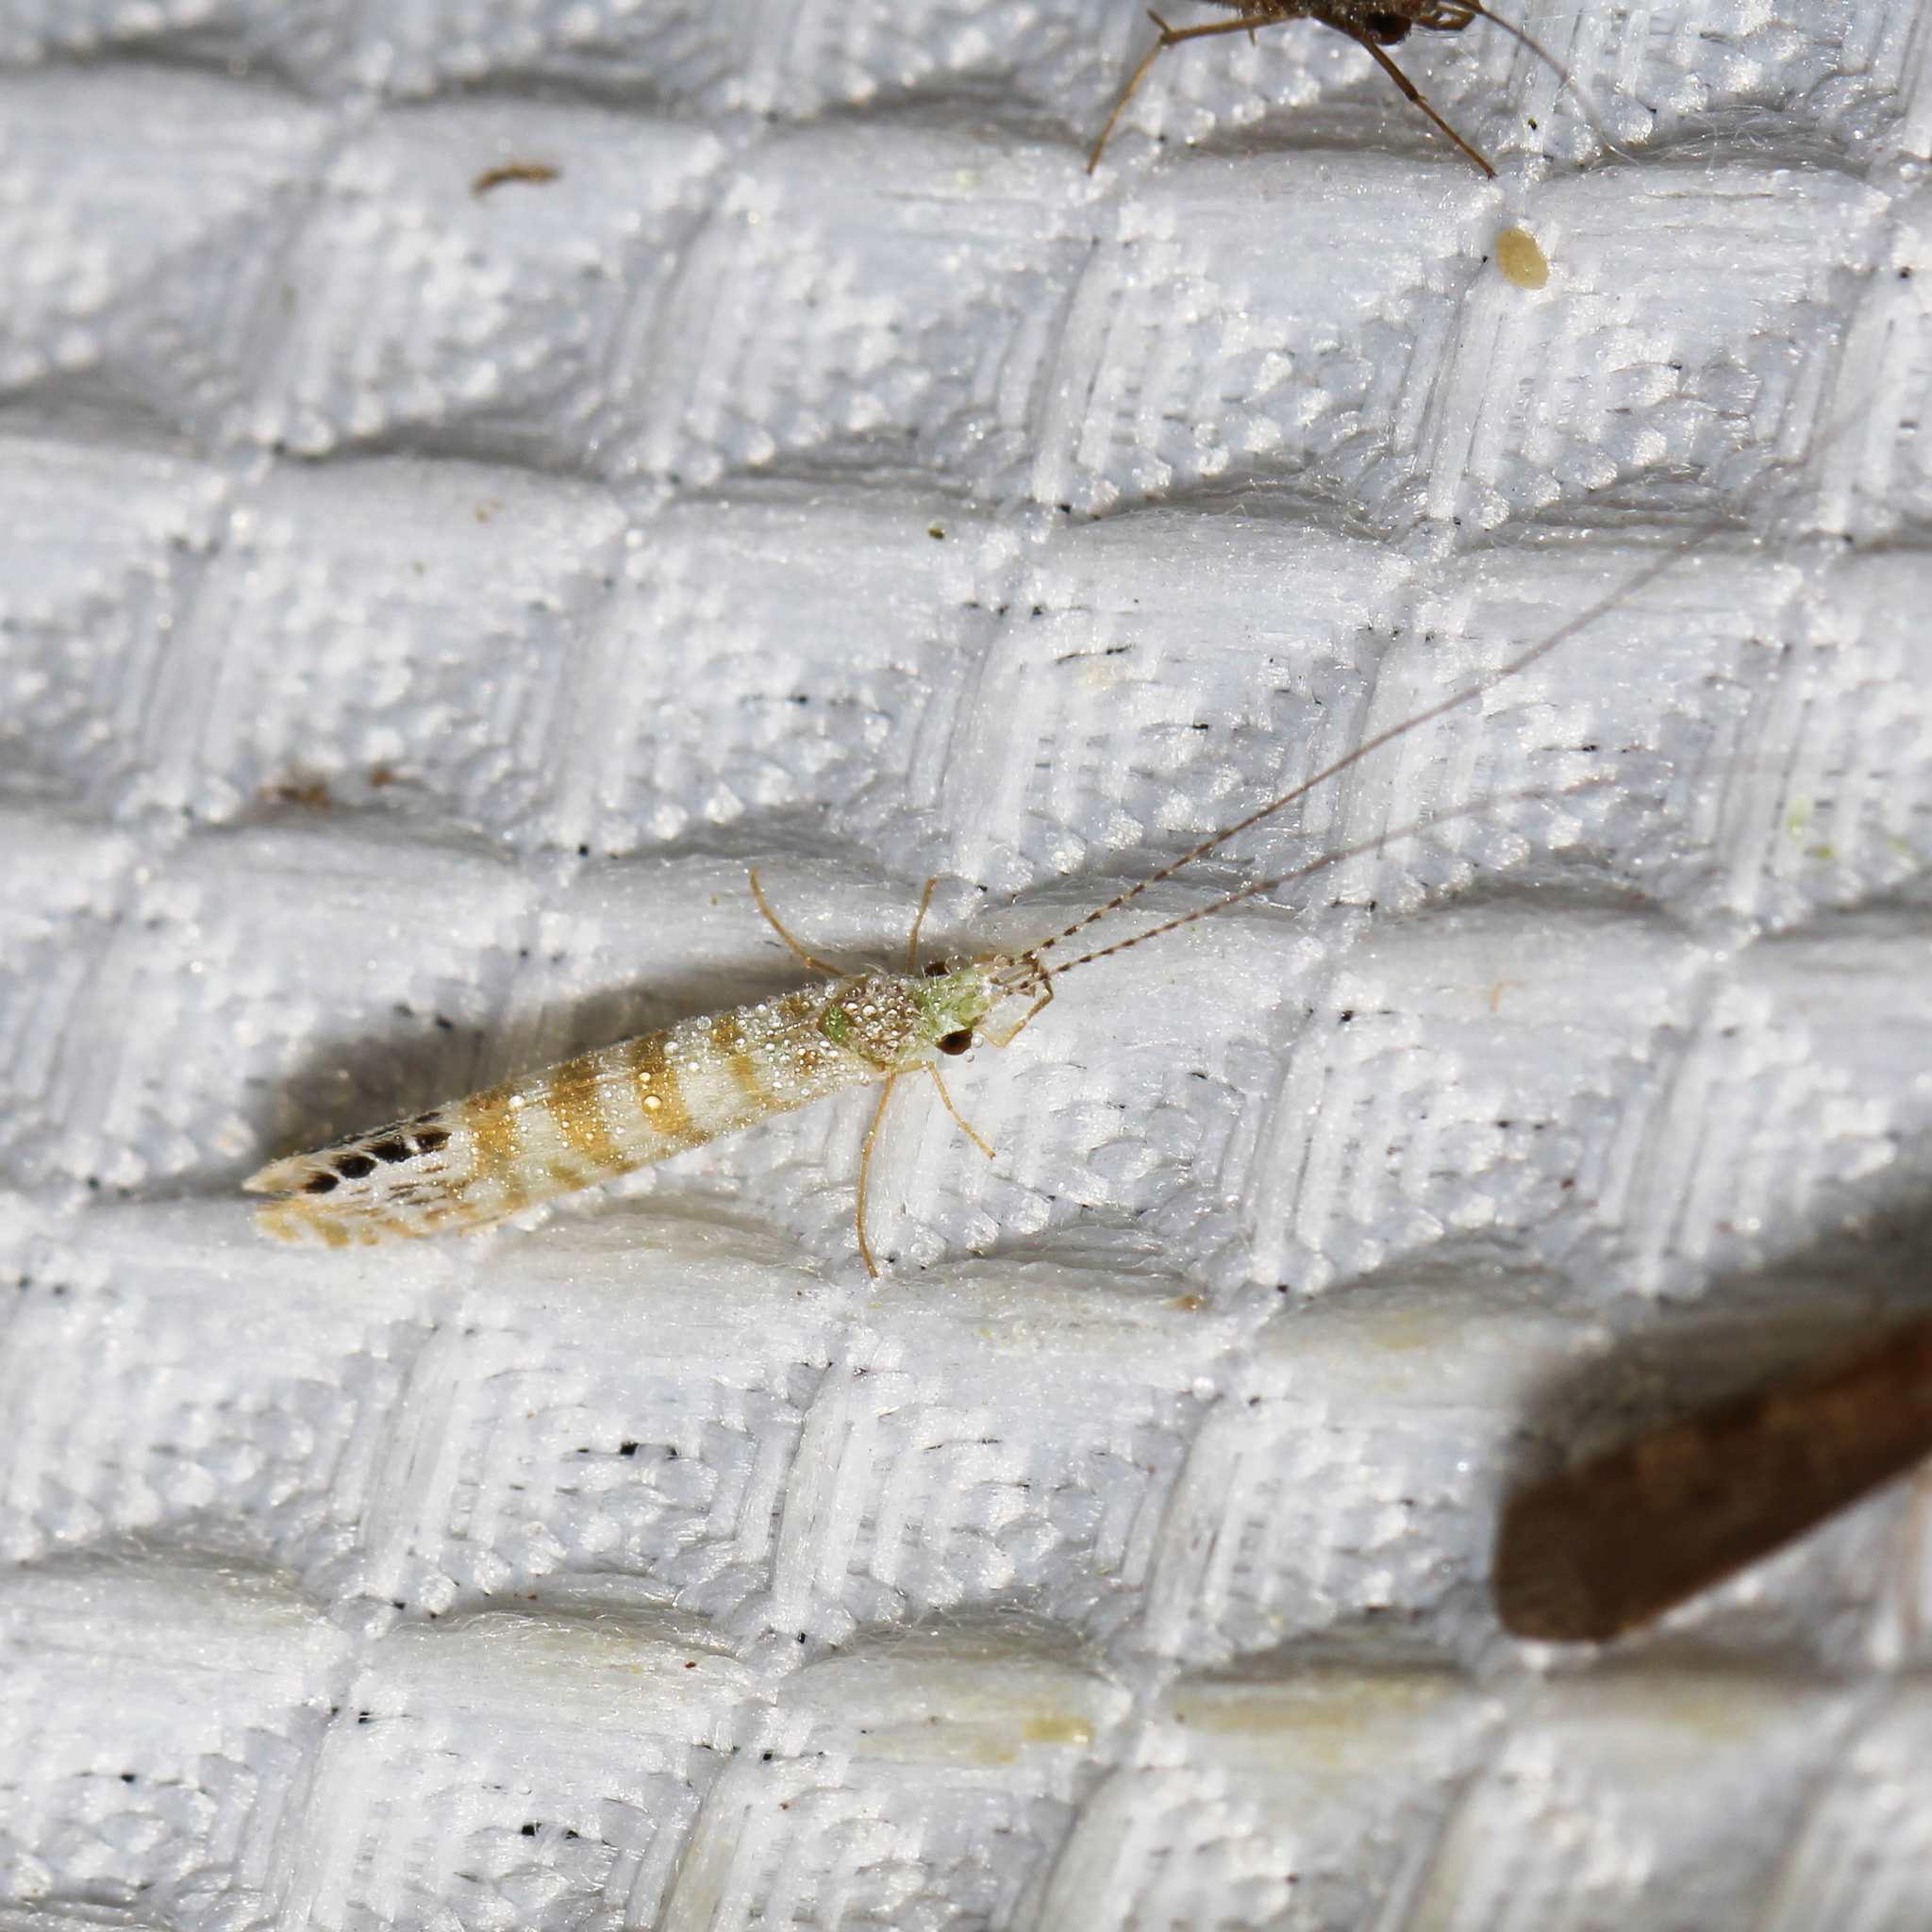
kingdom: Animalia
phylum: Arthropoda
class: Insecta
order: Trichoptera
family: Leptoceridae
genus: Nectopsyche
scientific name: Nectopsyche exquisita
